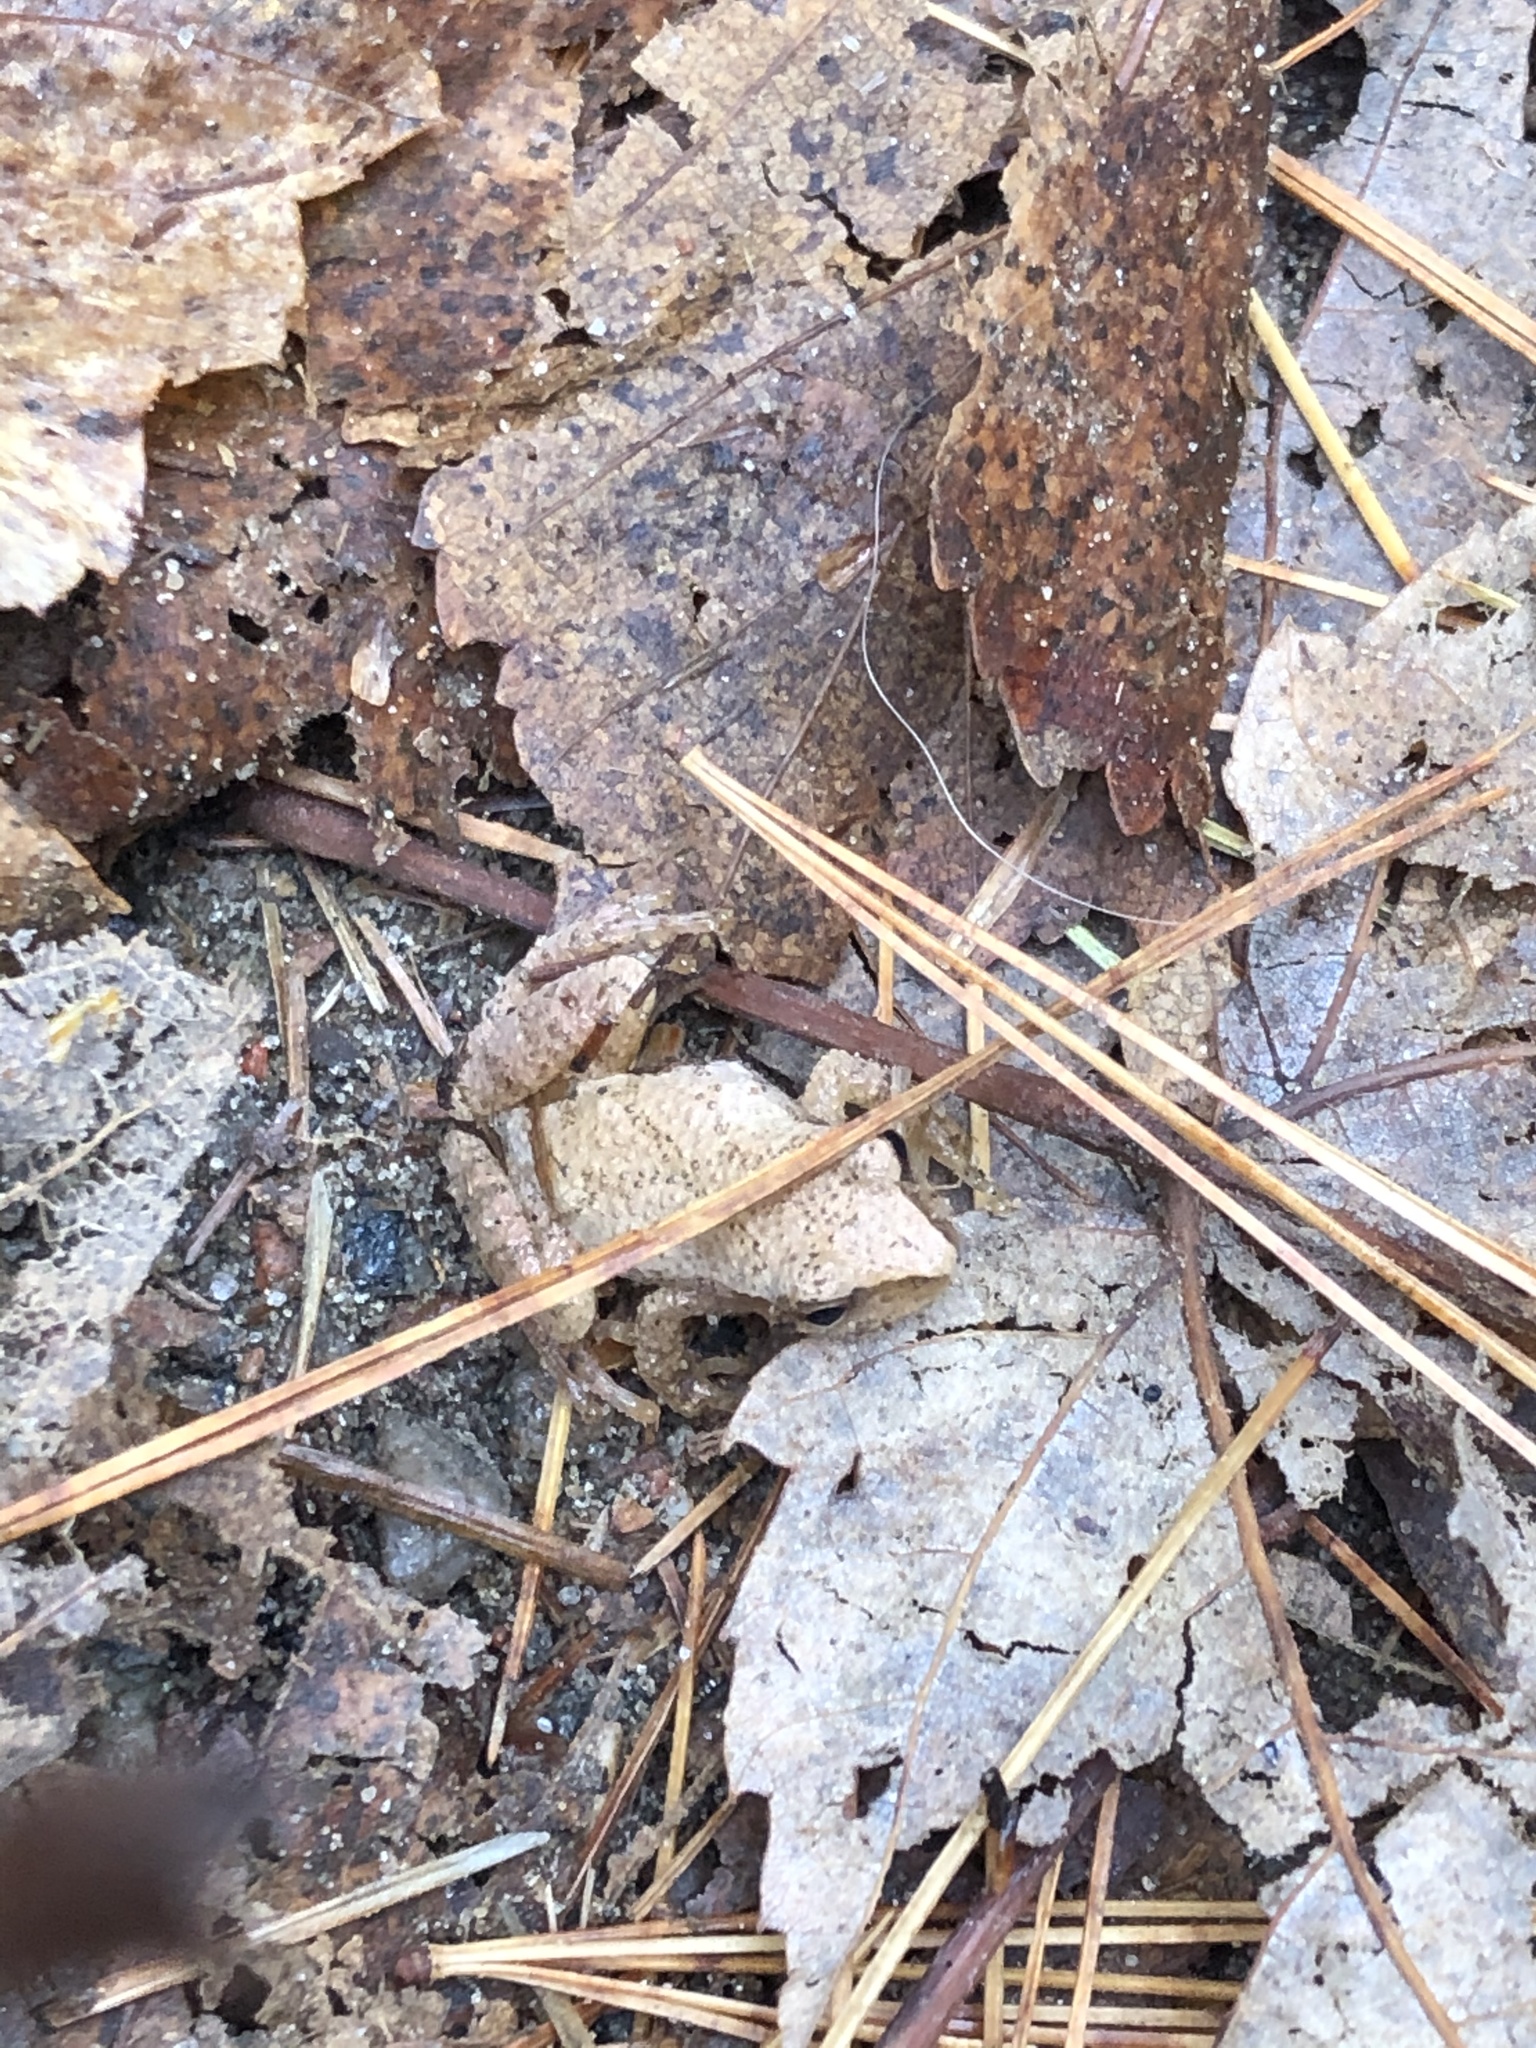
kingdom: Animalia
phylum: Chordata
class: Amphibia
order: Anura
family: Hylidae
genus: Pseudacris
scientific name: Pseudacris crucifer
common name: Spring peeper
